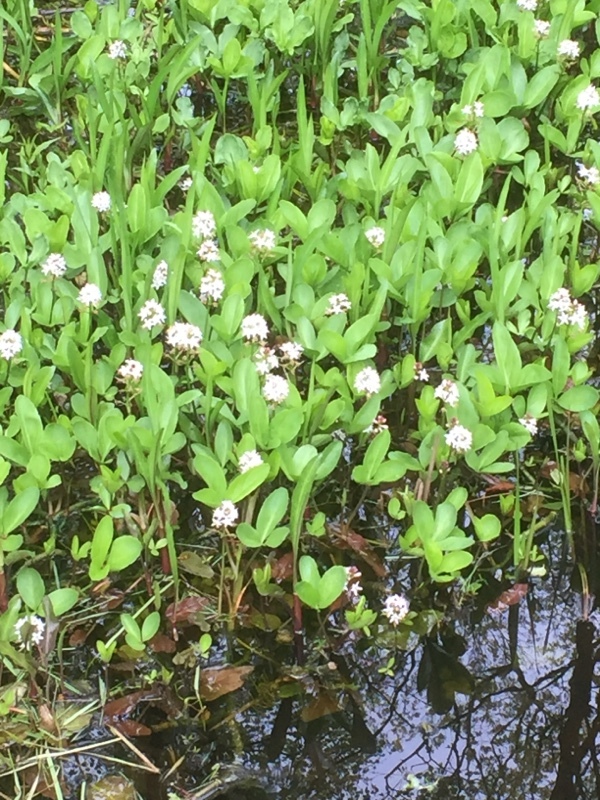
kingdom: Plantae
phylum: Tracheophyta
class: Magnoliopsida
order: Asterales
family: Menyanthaceae
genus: Menyanthes
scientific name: Menyanthes trifoliata
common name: Bogbean
